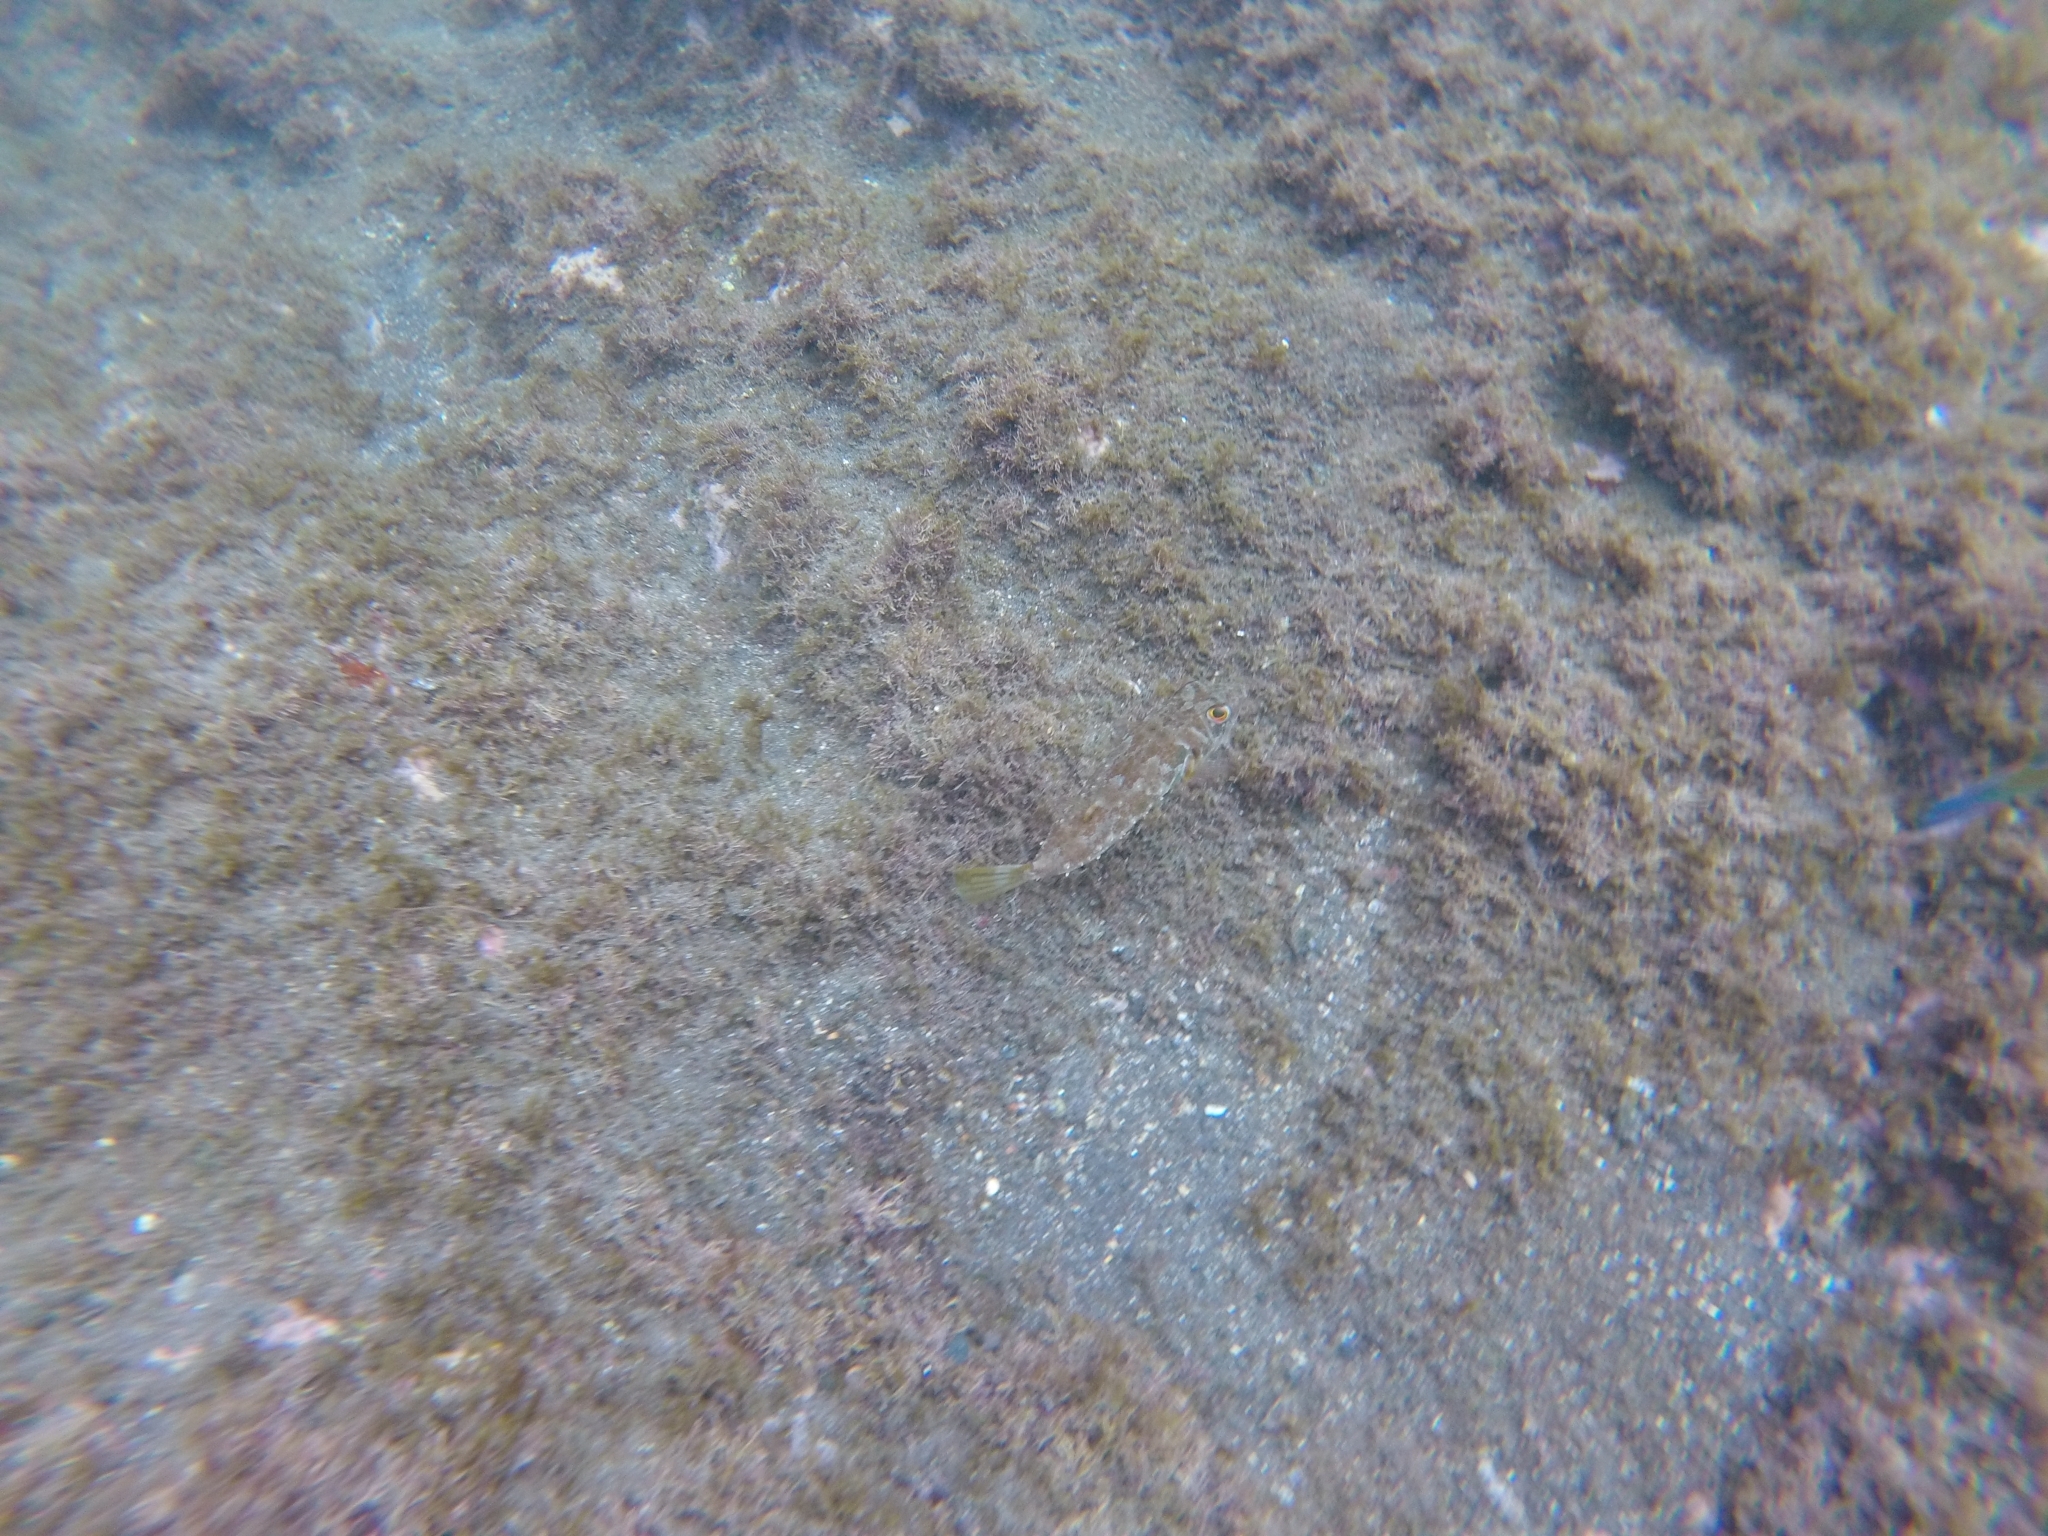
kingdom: Animalia
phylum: Chordata
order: Tetraodontiformes
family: Tetraodontidae
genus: Sphoeroides
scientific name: Sphoeroides marmoratus
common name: Guinean puffer
